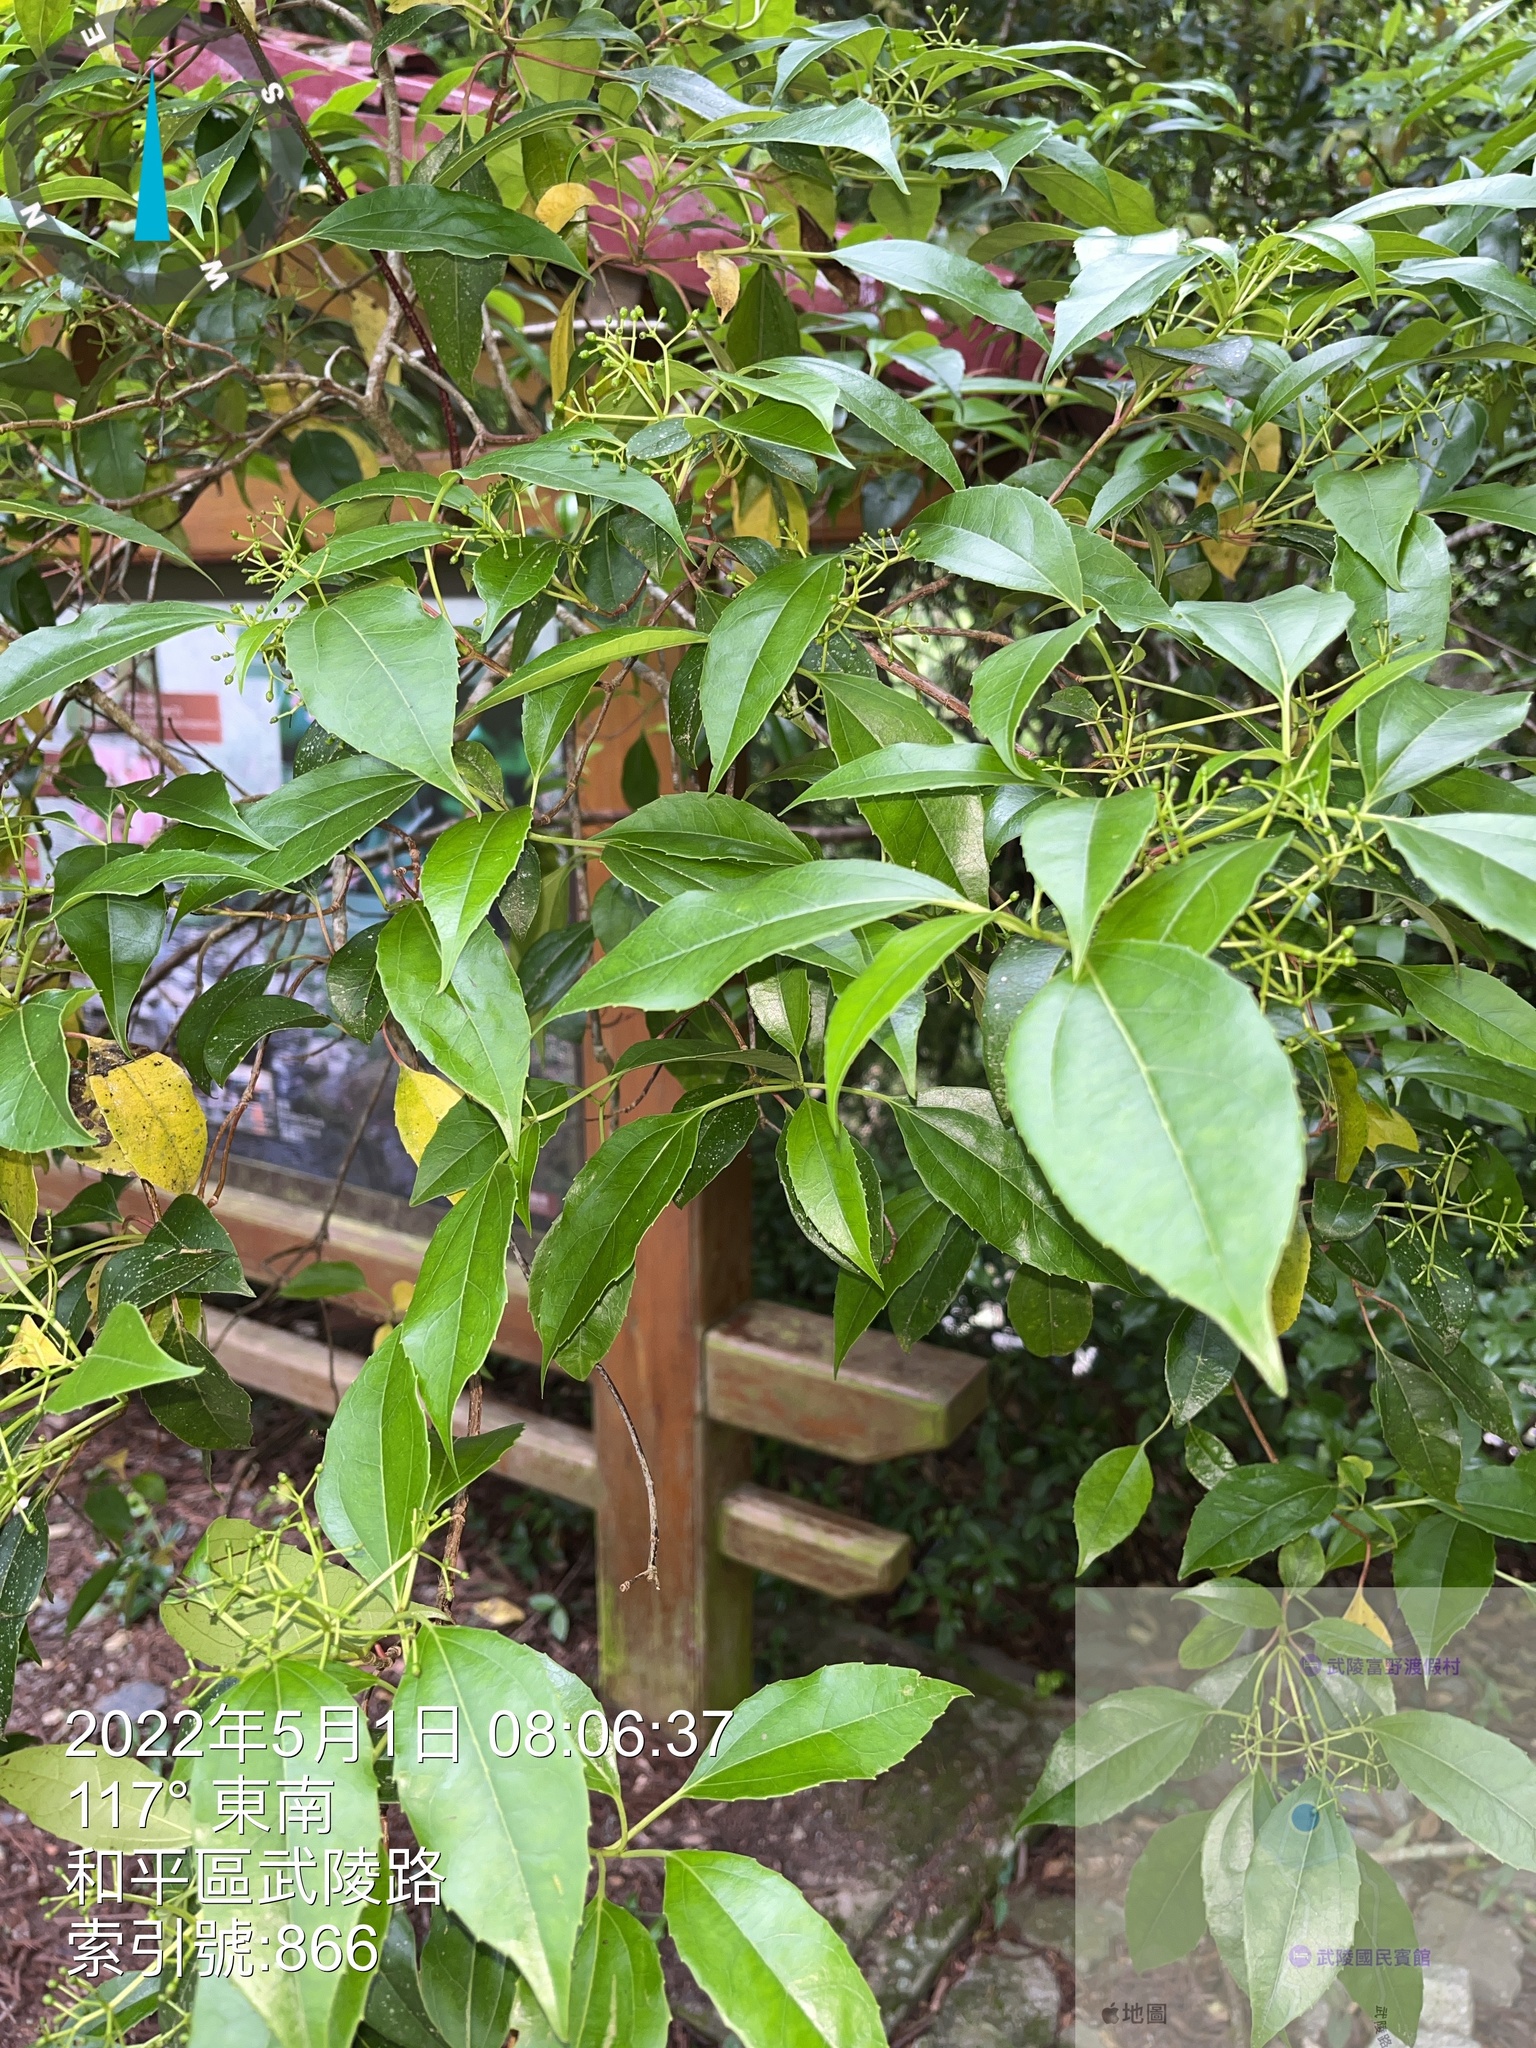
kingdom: Plantae
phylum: Tracheophyta
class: Magnoliopsida
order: Dipsacales
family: Viburnaceae
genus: Viburnum
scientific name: Viburnum propinquum
